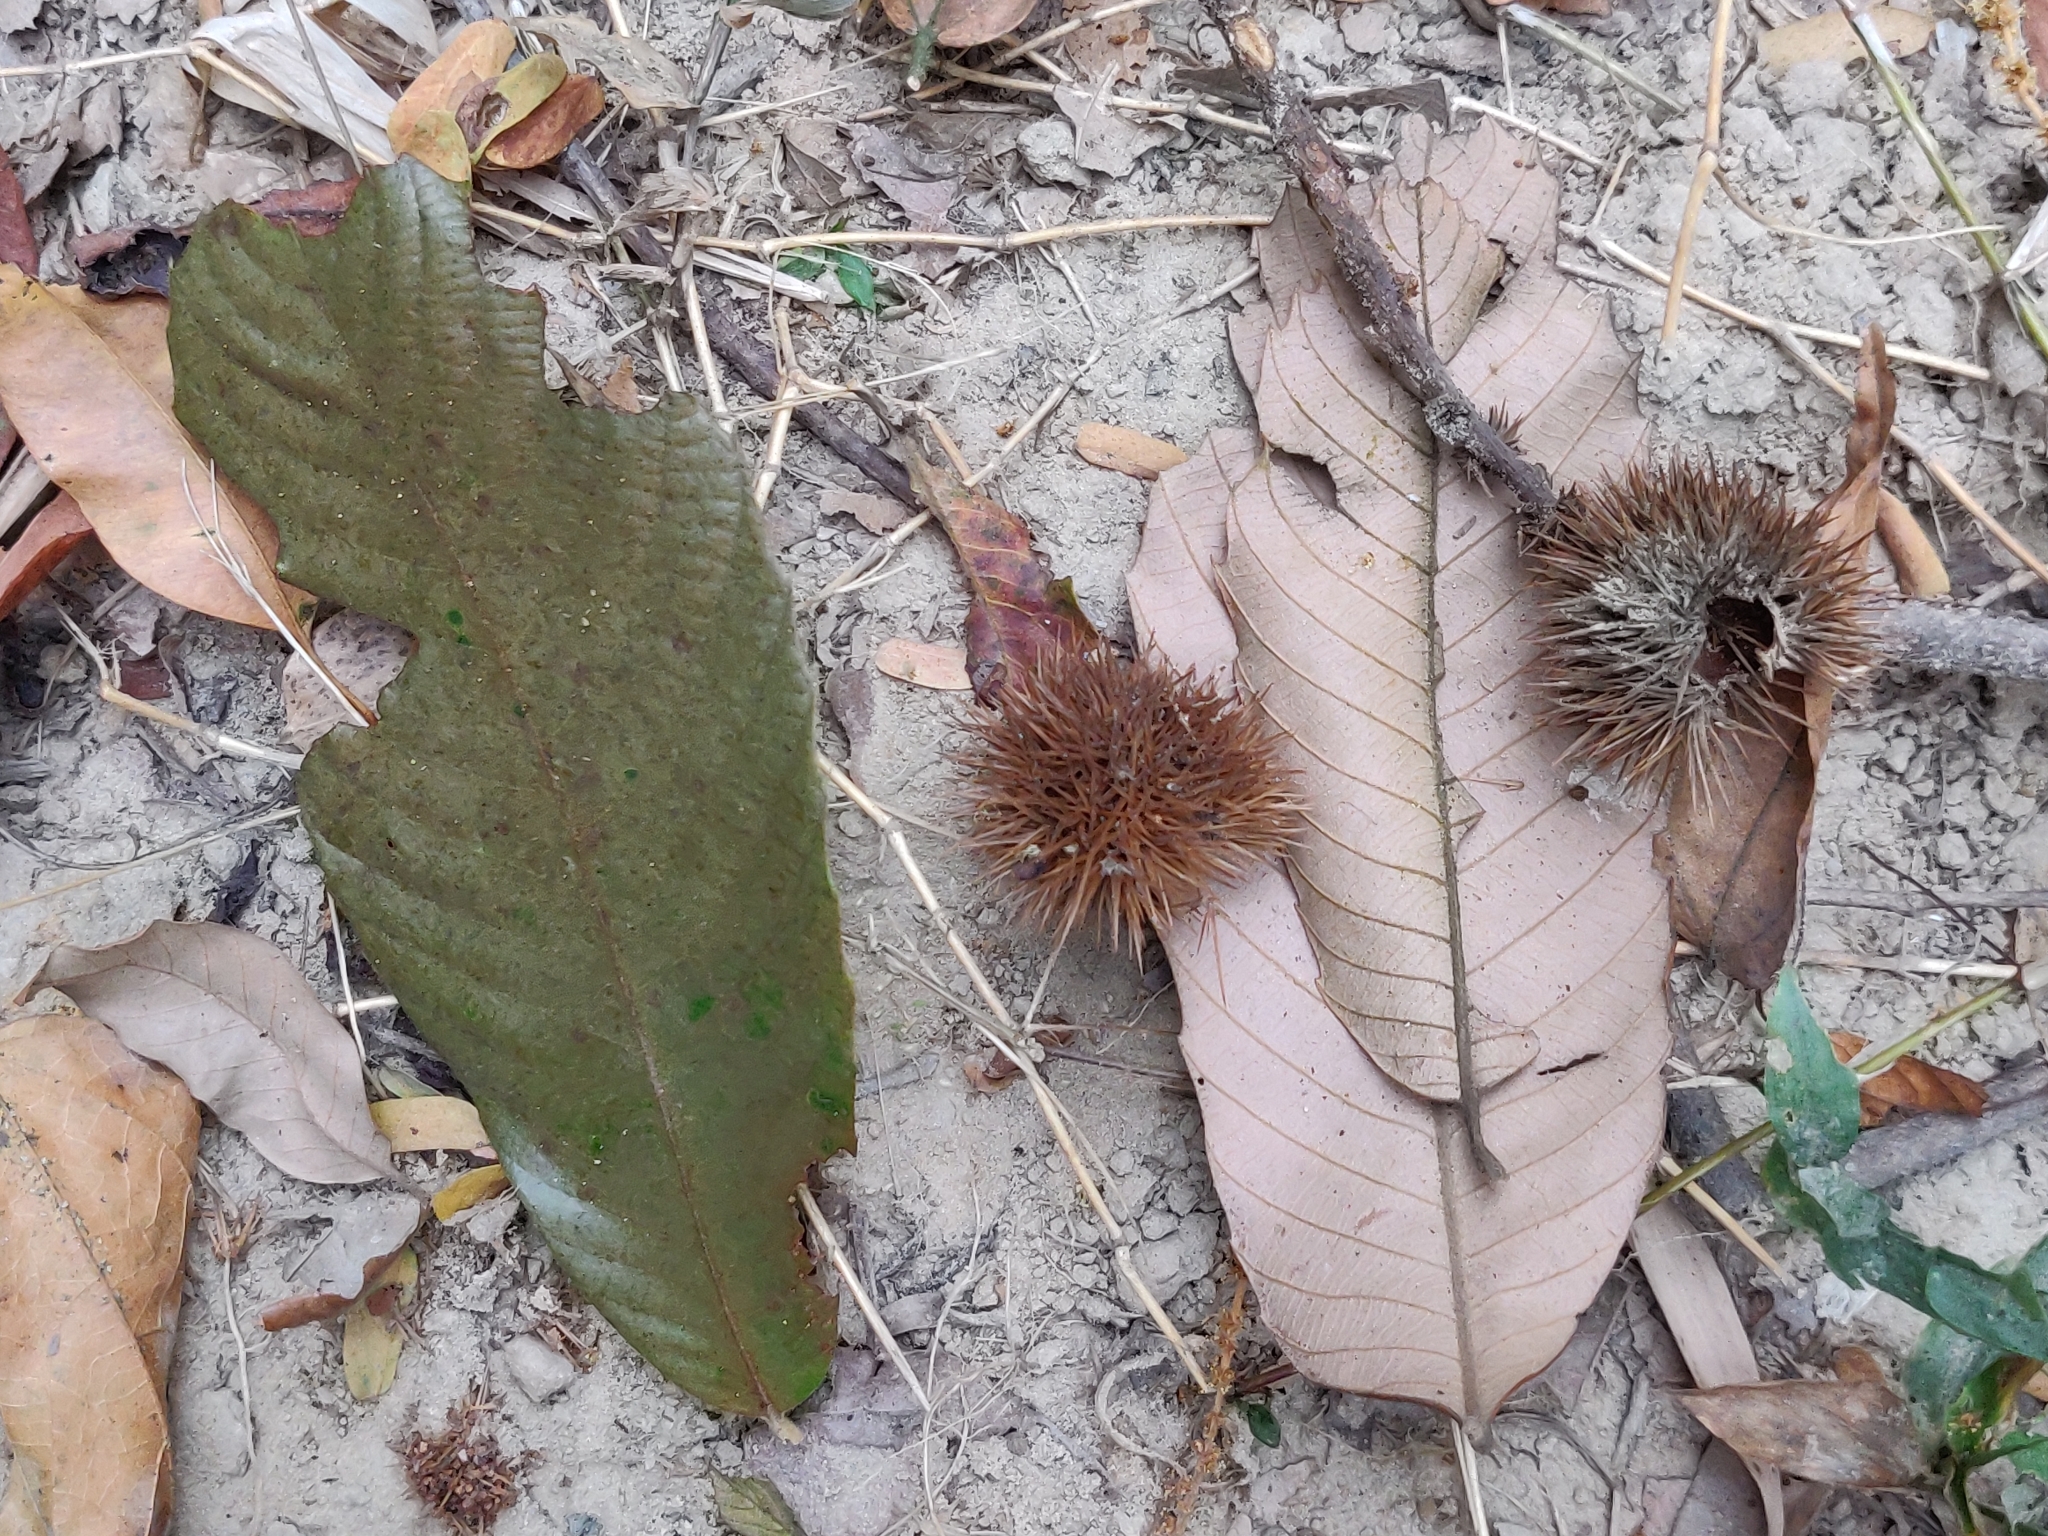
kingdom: Plantae
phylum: Tracheophyta
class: Magnoliopsida
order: Fagales
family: Fagaceae
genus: Castanopsis
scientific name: Castanopsis tribuloides
